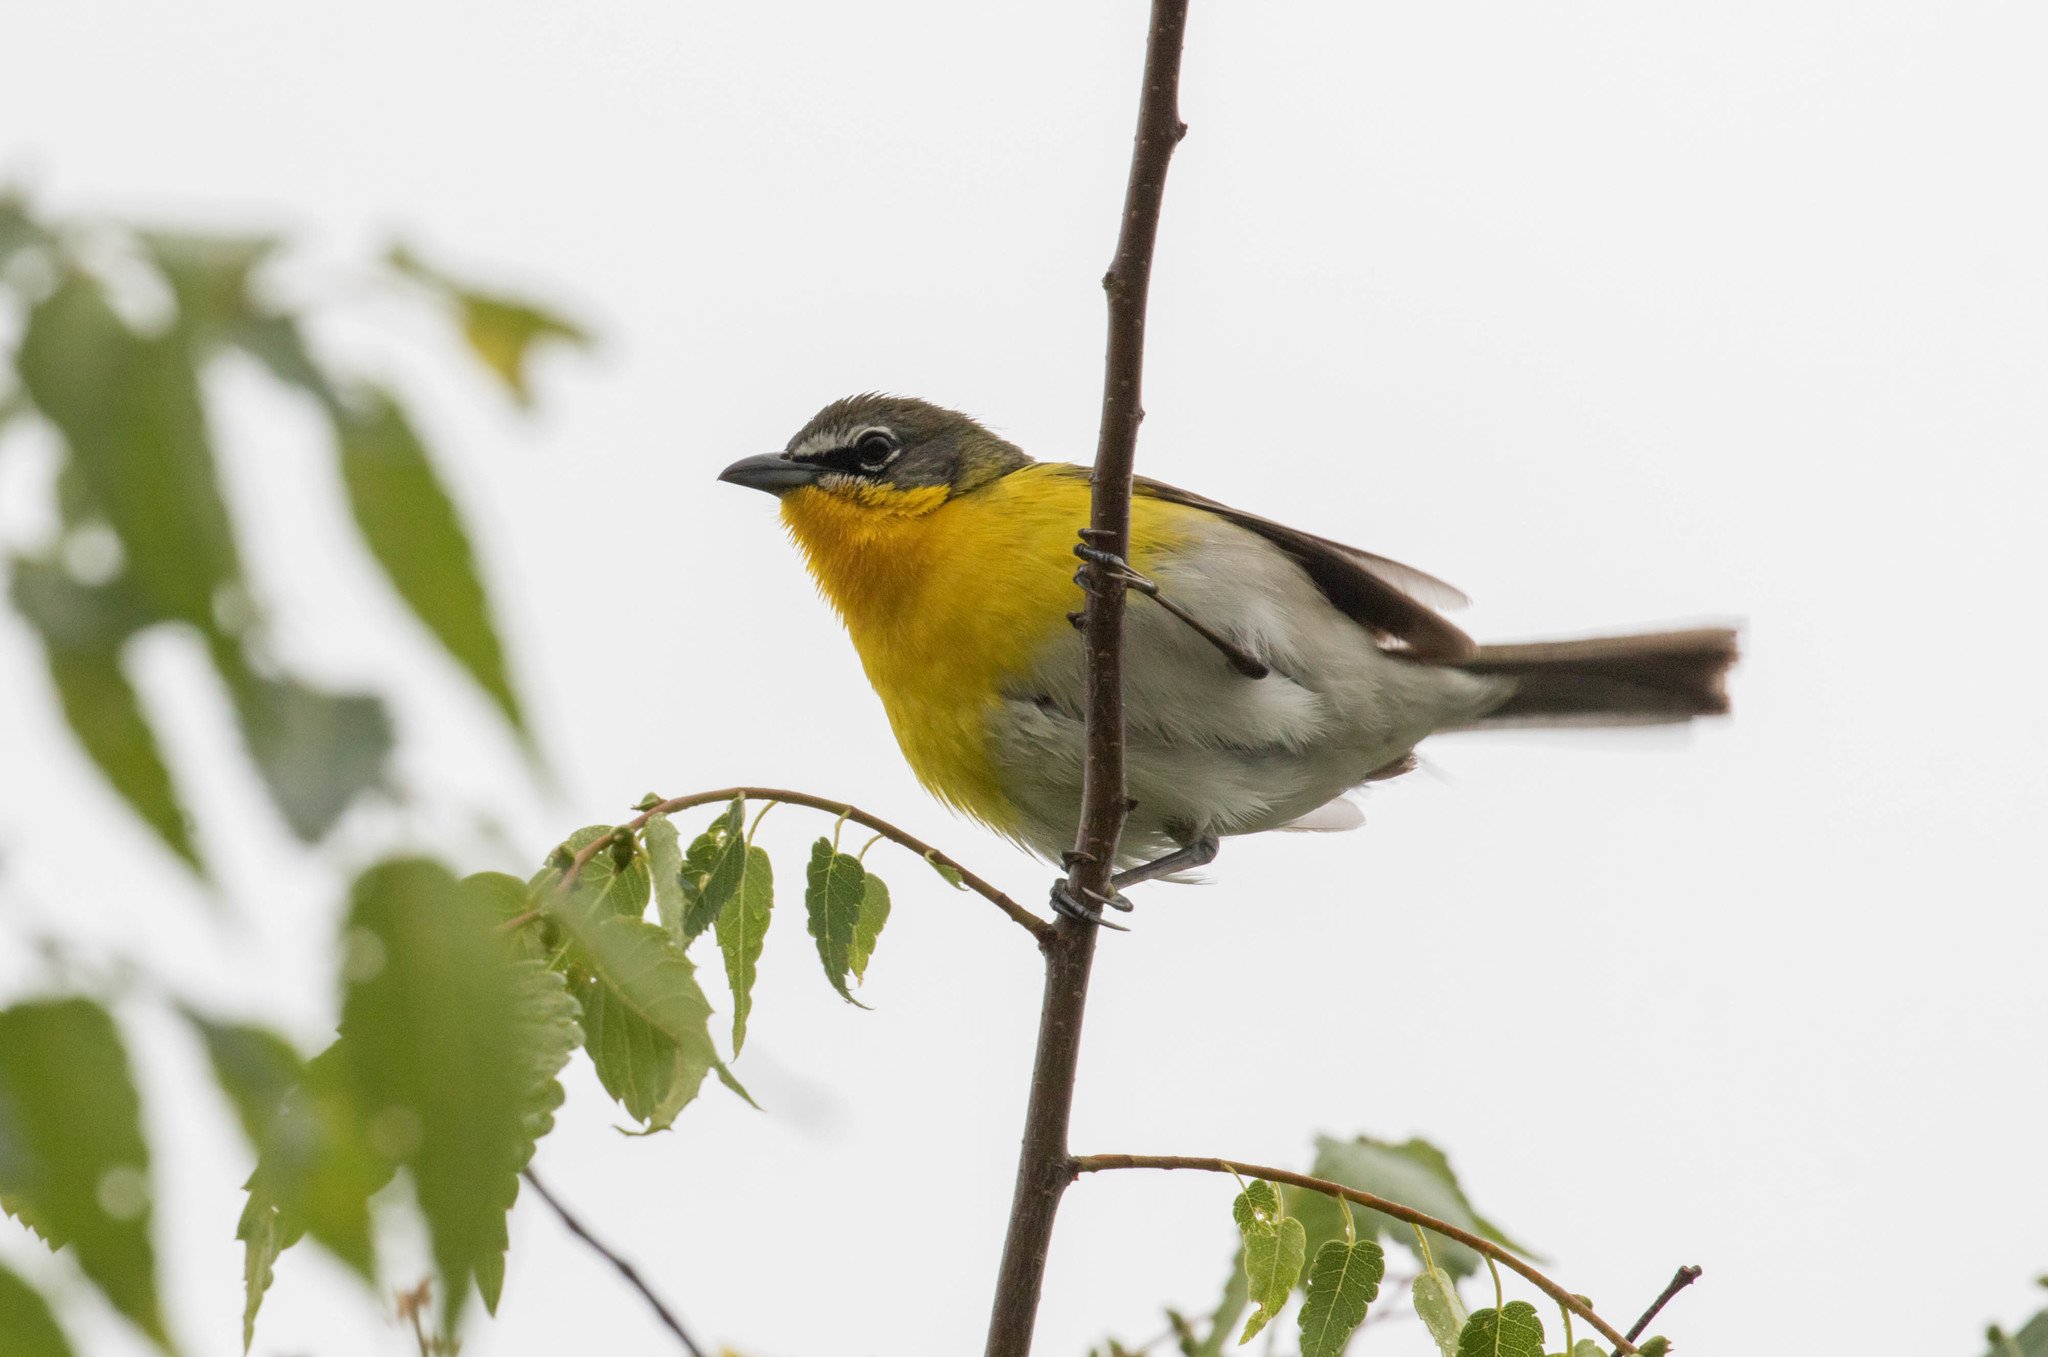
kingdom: Animalia
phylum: Chordata
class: Aves
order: Passeriformes
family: Parulidae
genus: Icteria
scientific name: Icteria virens
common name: Yellow-breasted chat
